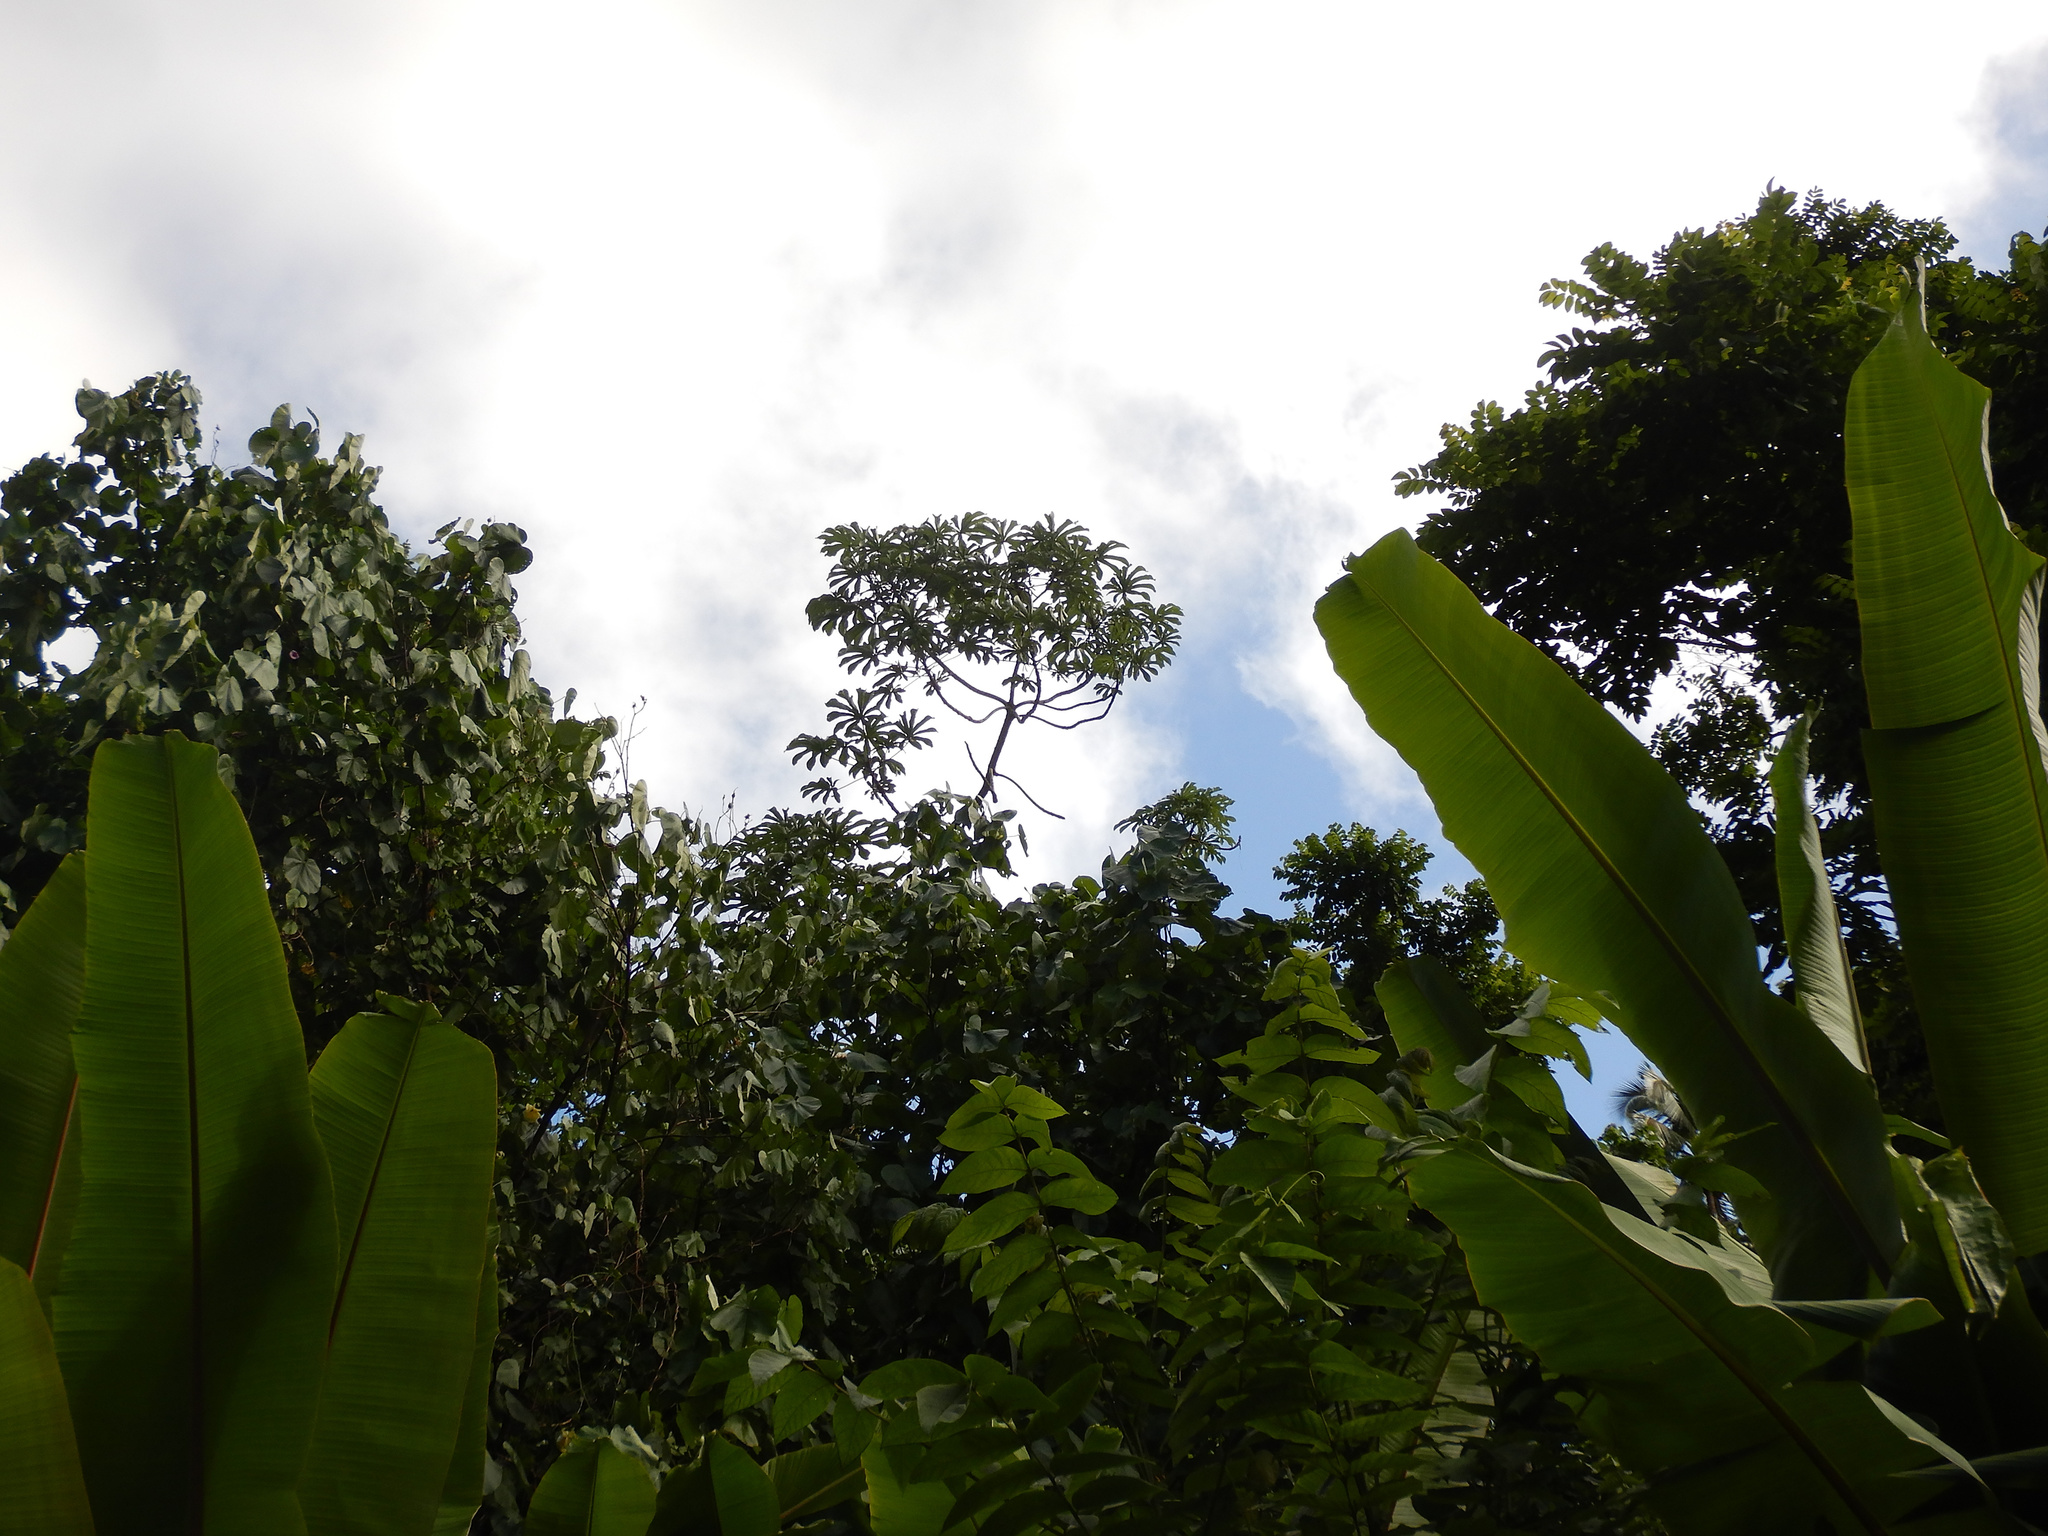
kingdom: Plantae
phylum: Tracheophyta
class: Magnoliopsida
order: Rosales
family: Urticaceae
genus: Cecropia
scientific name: Cecropia pachystachya
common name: Ambay pumpwood
